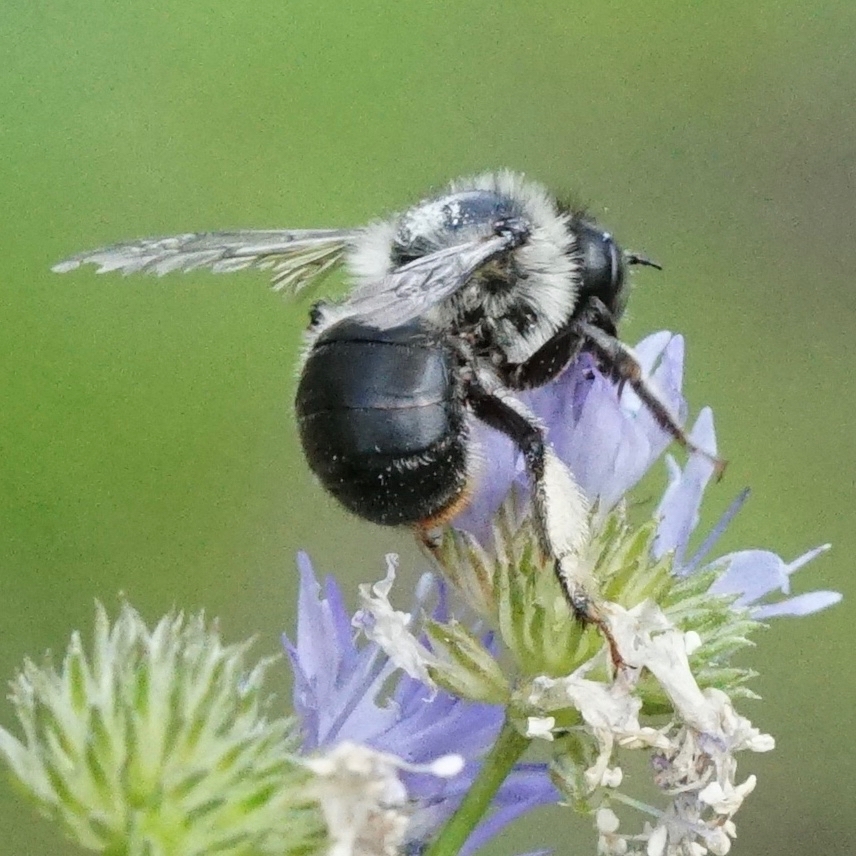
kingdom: Animalia
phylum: Arthropoda
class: Insecta
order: Hymenoptera
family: Apidae
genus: Anthophora
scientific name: Anthophora terminalis
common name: Orange-tipped wood-digger bee
